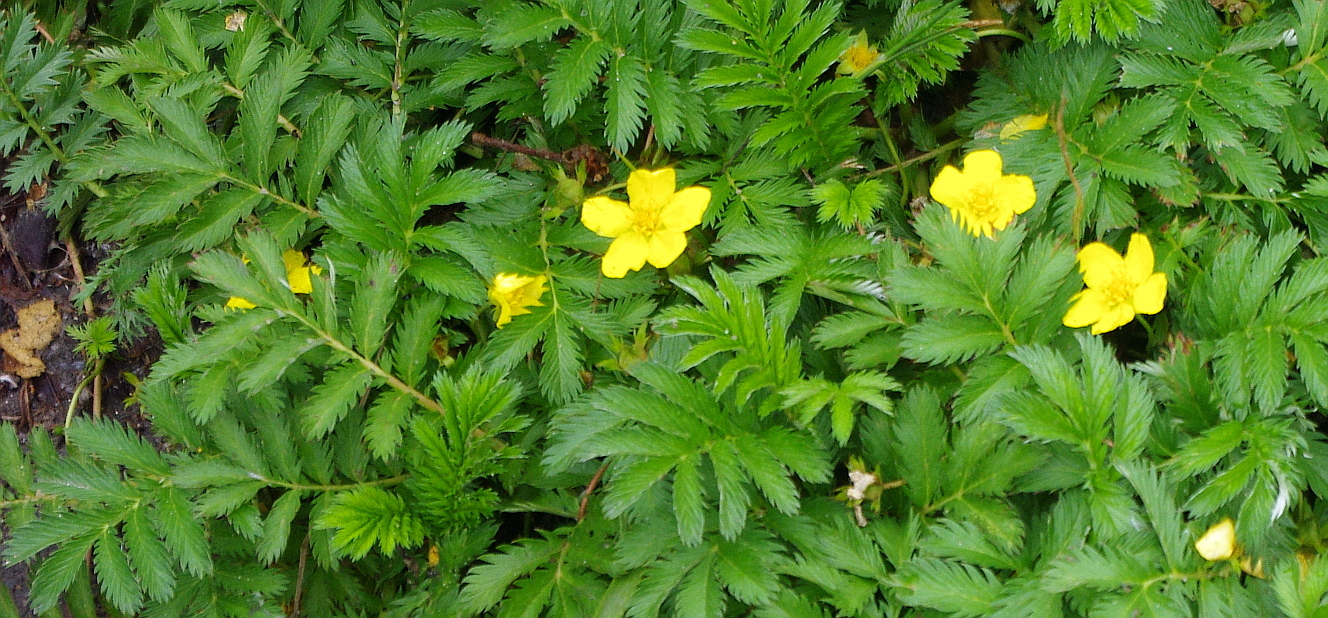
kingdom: Plantae
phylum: Tracheophyta
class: Magnoliopsida
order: Rosales
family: Rosaceae
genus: Argentina
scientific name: Argentina anserina
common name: Common silverweed
